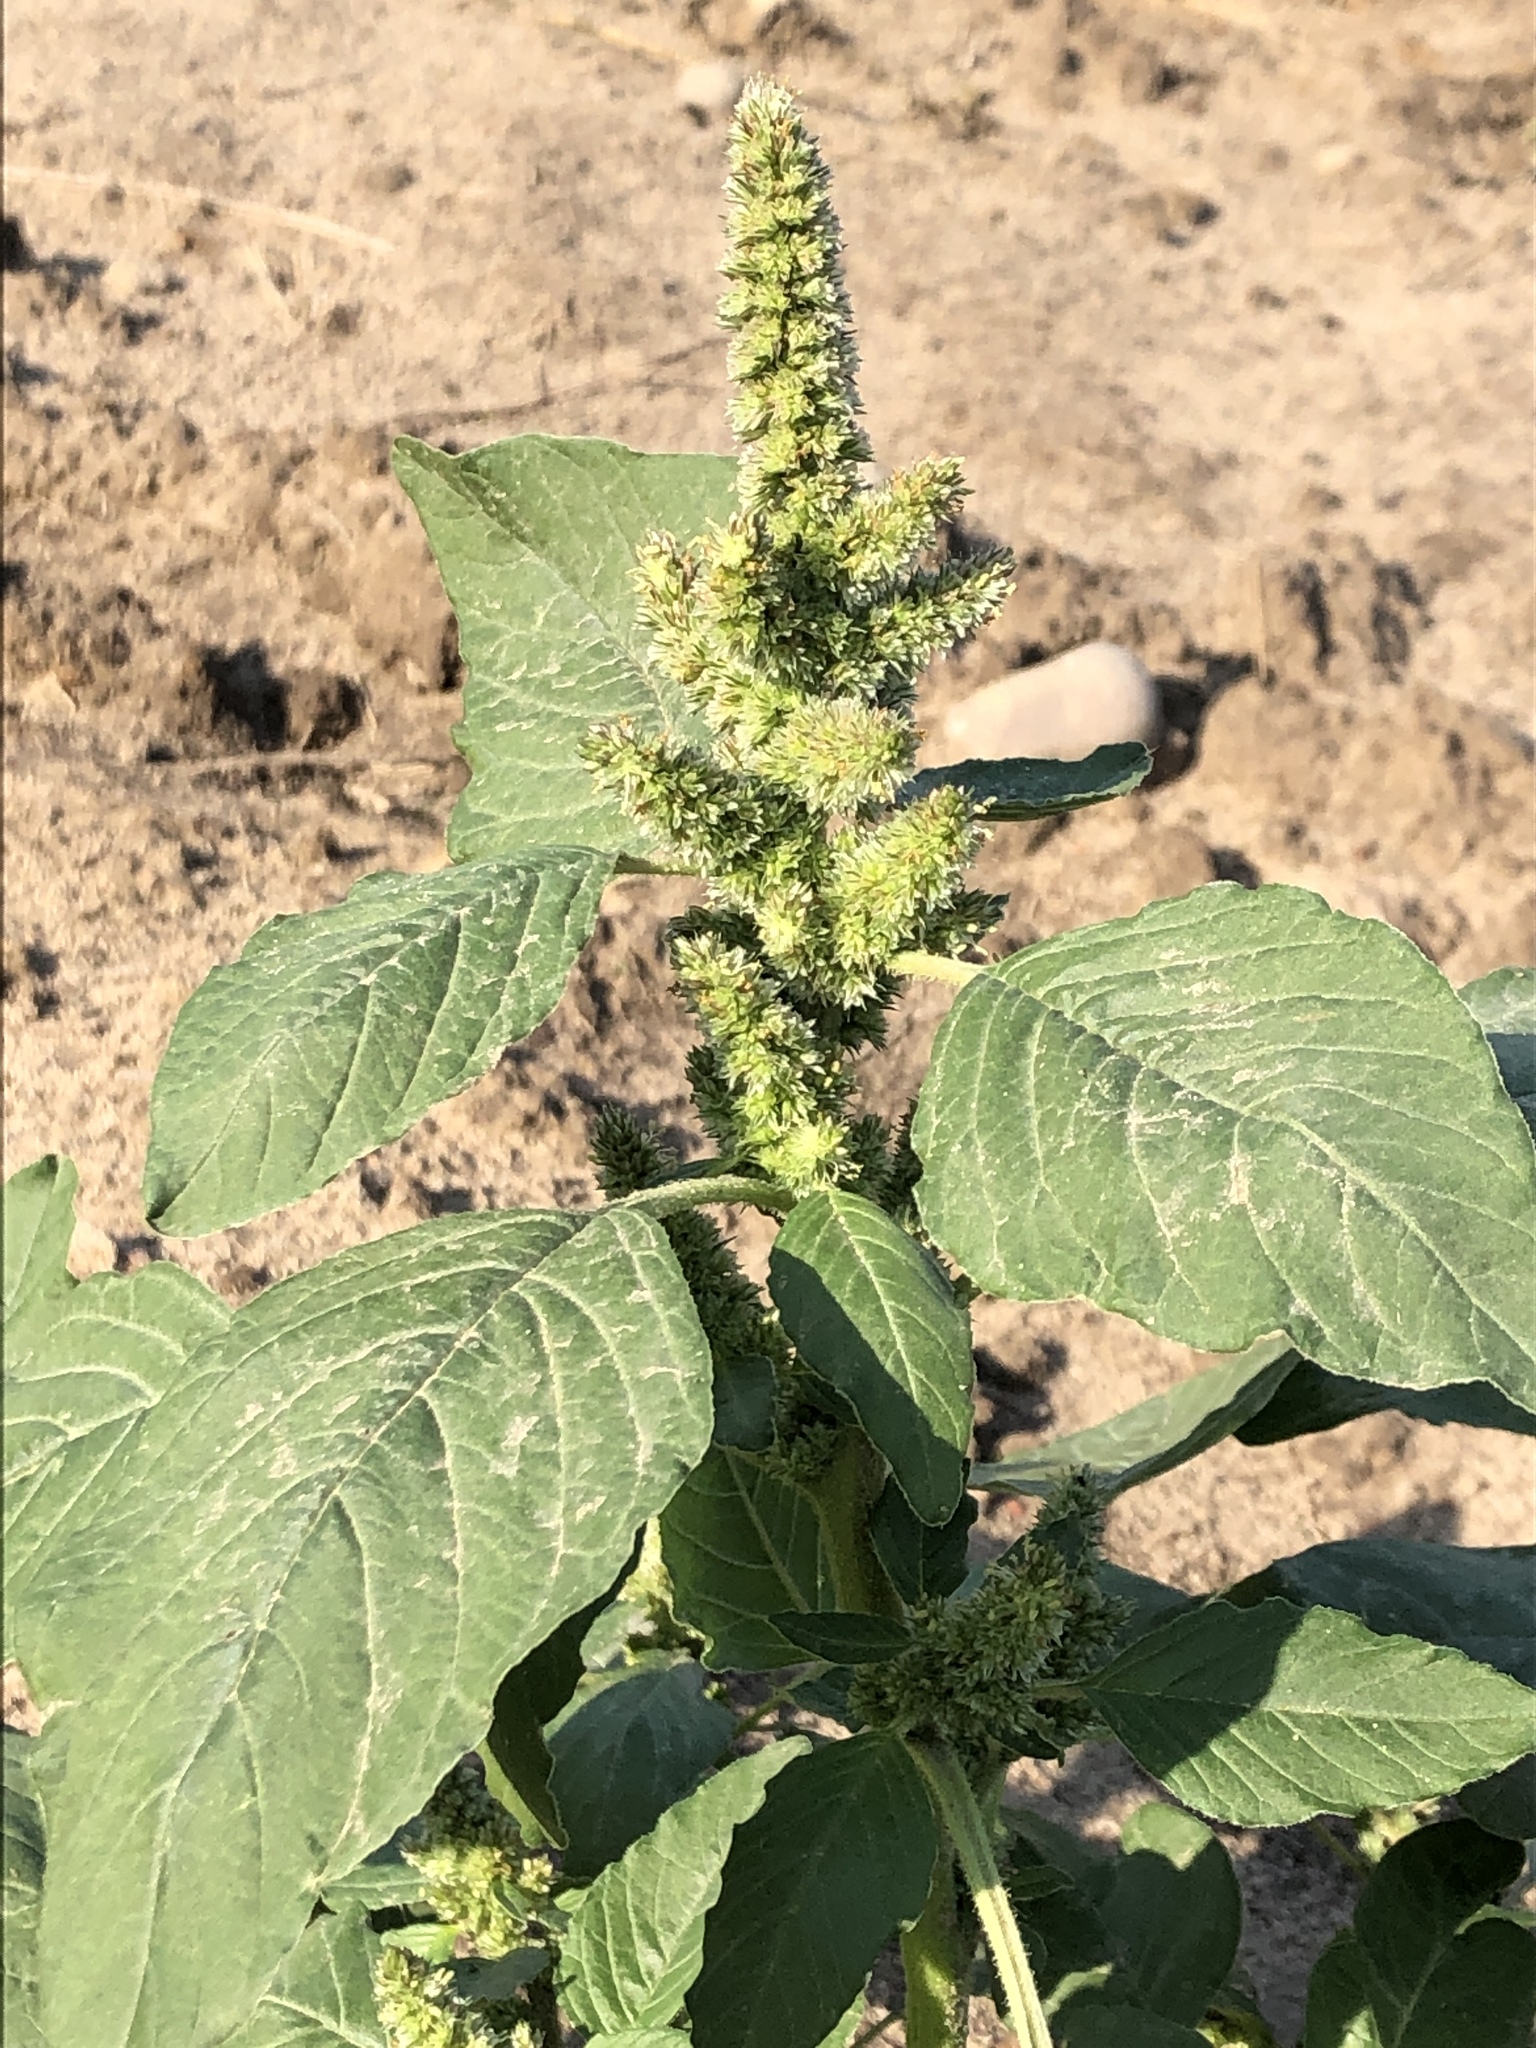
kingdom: Plantae
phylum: Tracheophyta
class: Magnoliopsida
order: Caryophyllales
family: Amaranthaceae
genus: Amaranthus
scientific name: Amaranthus retroflexus
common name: Redroot amaranth
